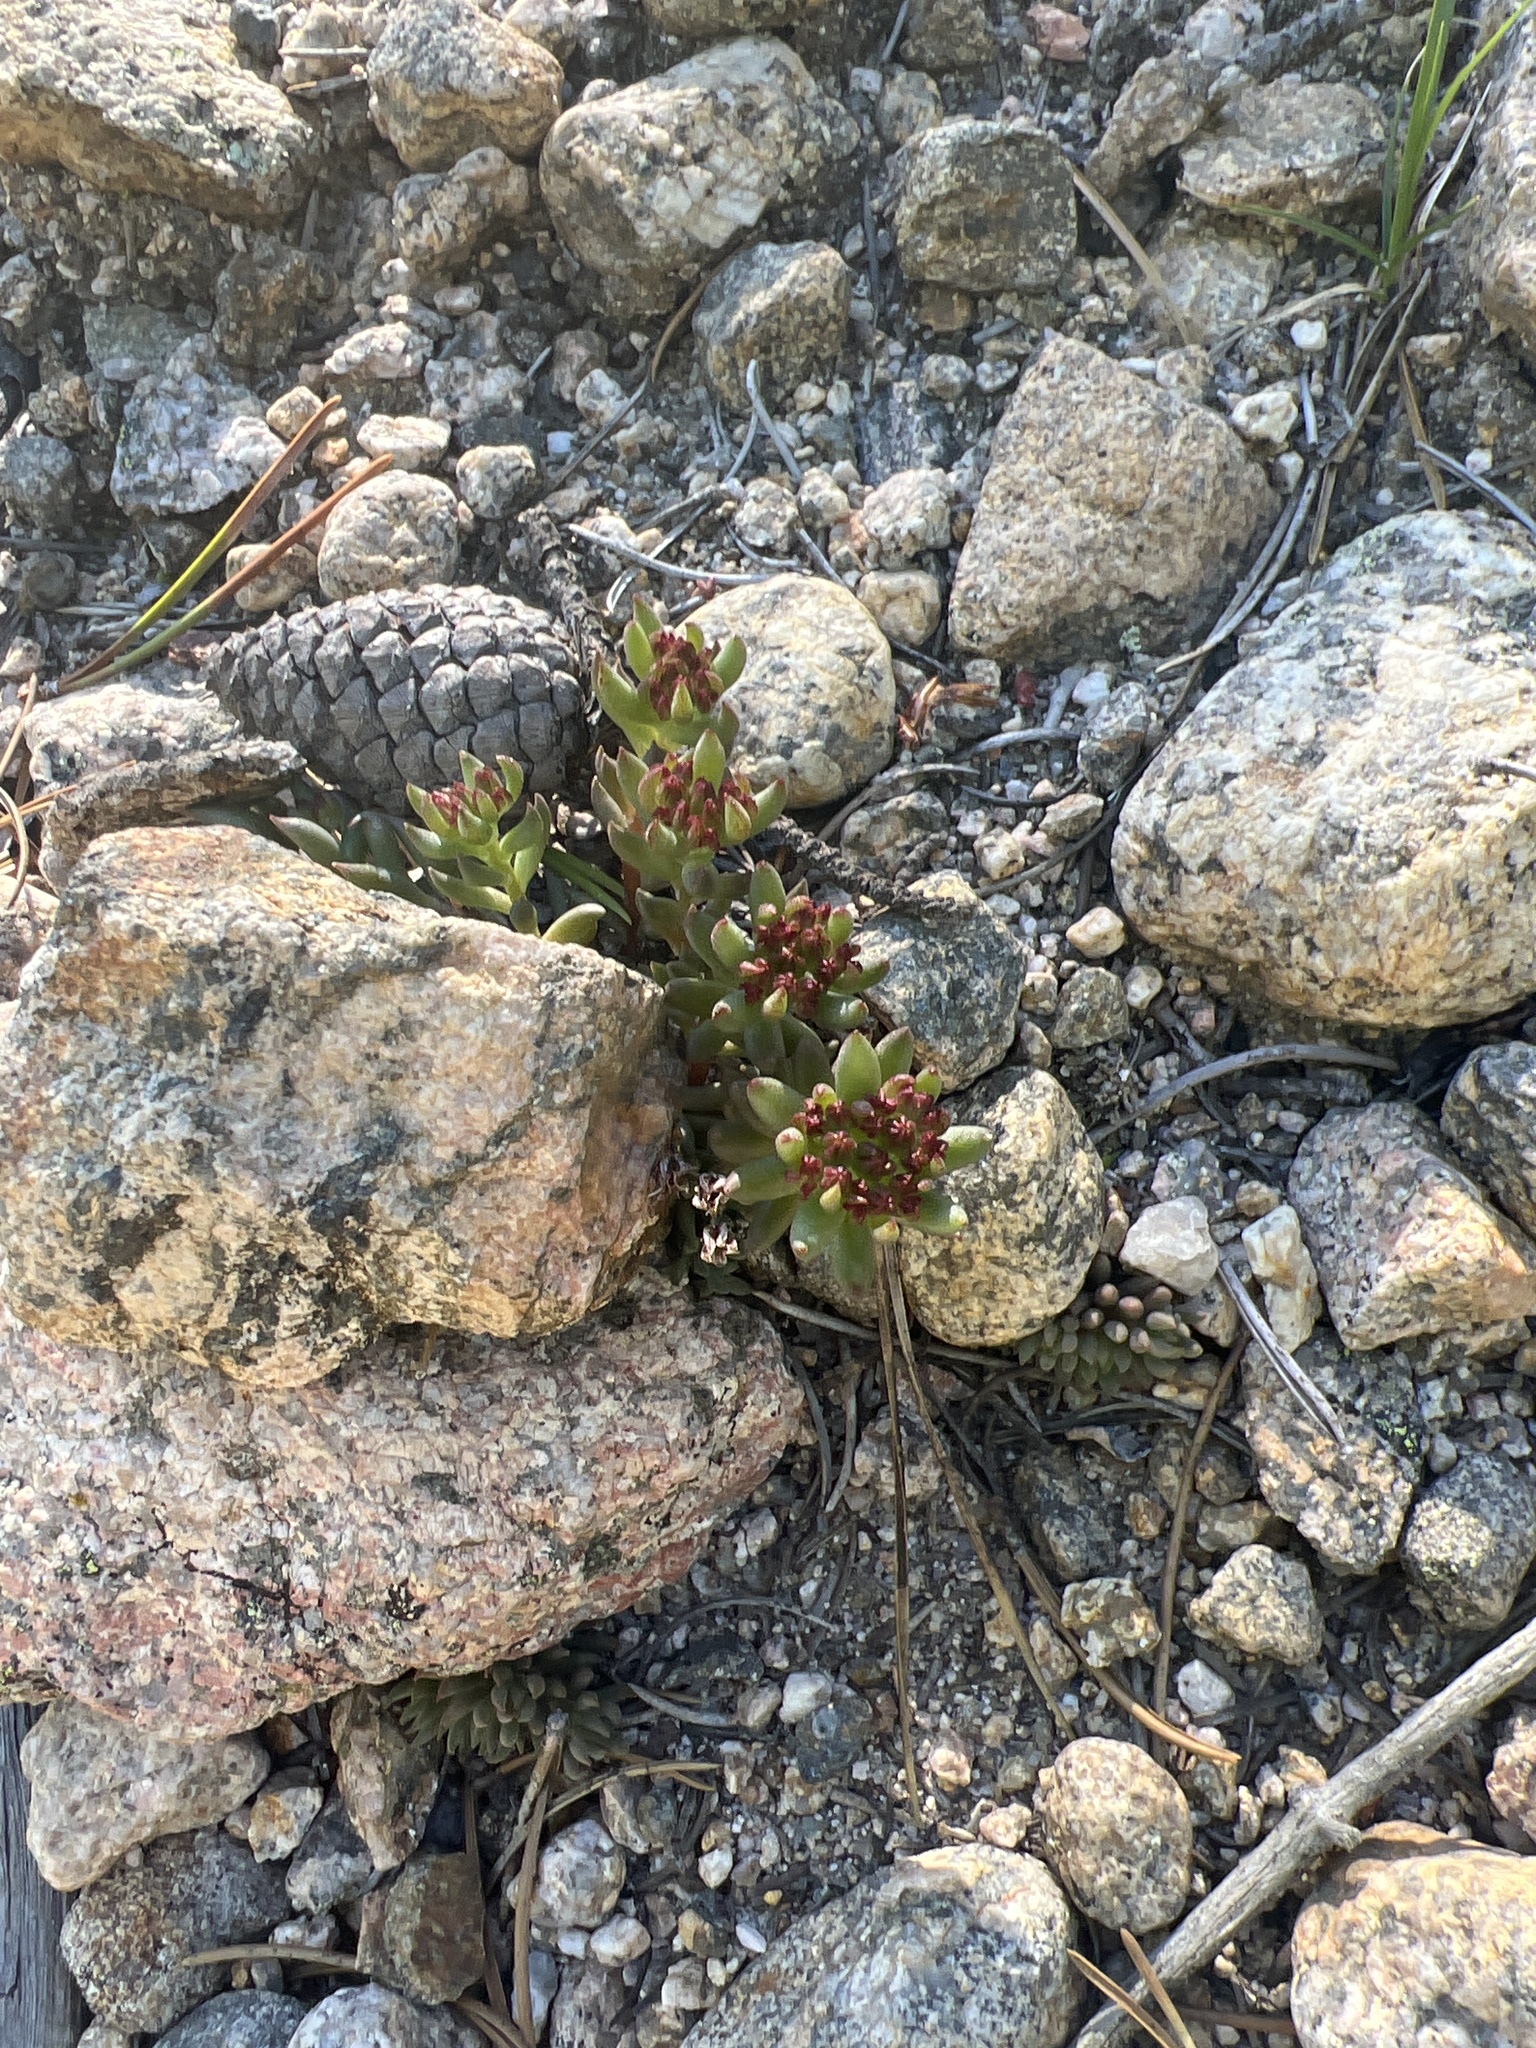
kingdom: Plantae
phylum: Tracheophyta
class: Magnoliopsida
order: Saxifragales
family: Crassulaceae
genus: Sedum
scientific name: Sedum lanceolatum
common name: Common stonecrop
